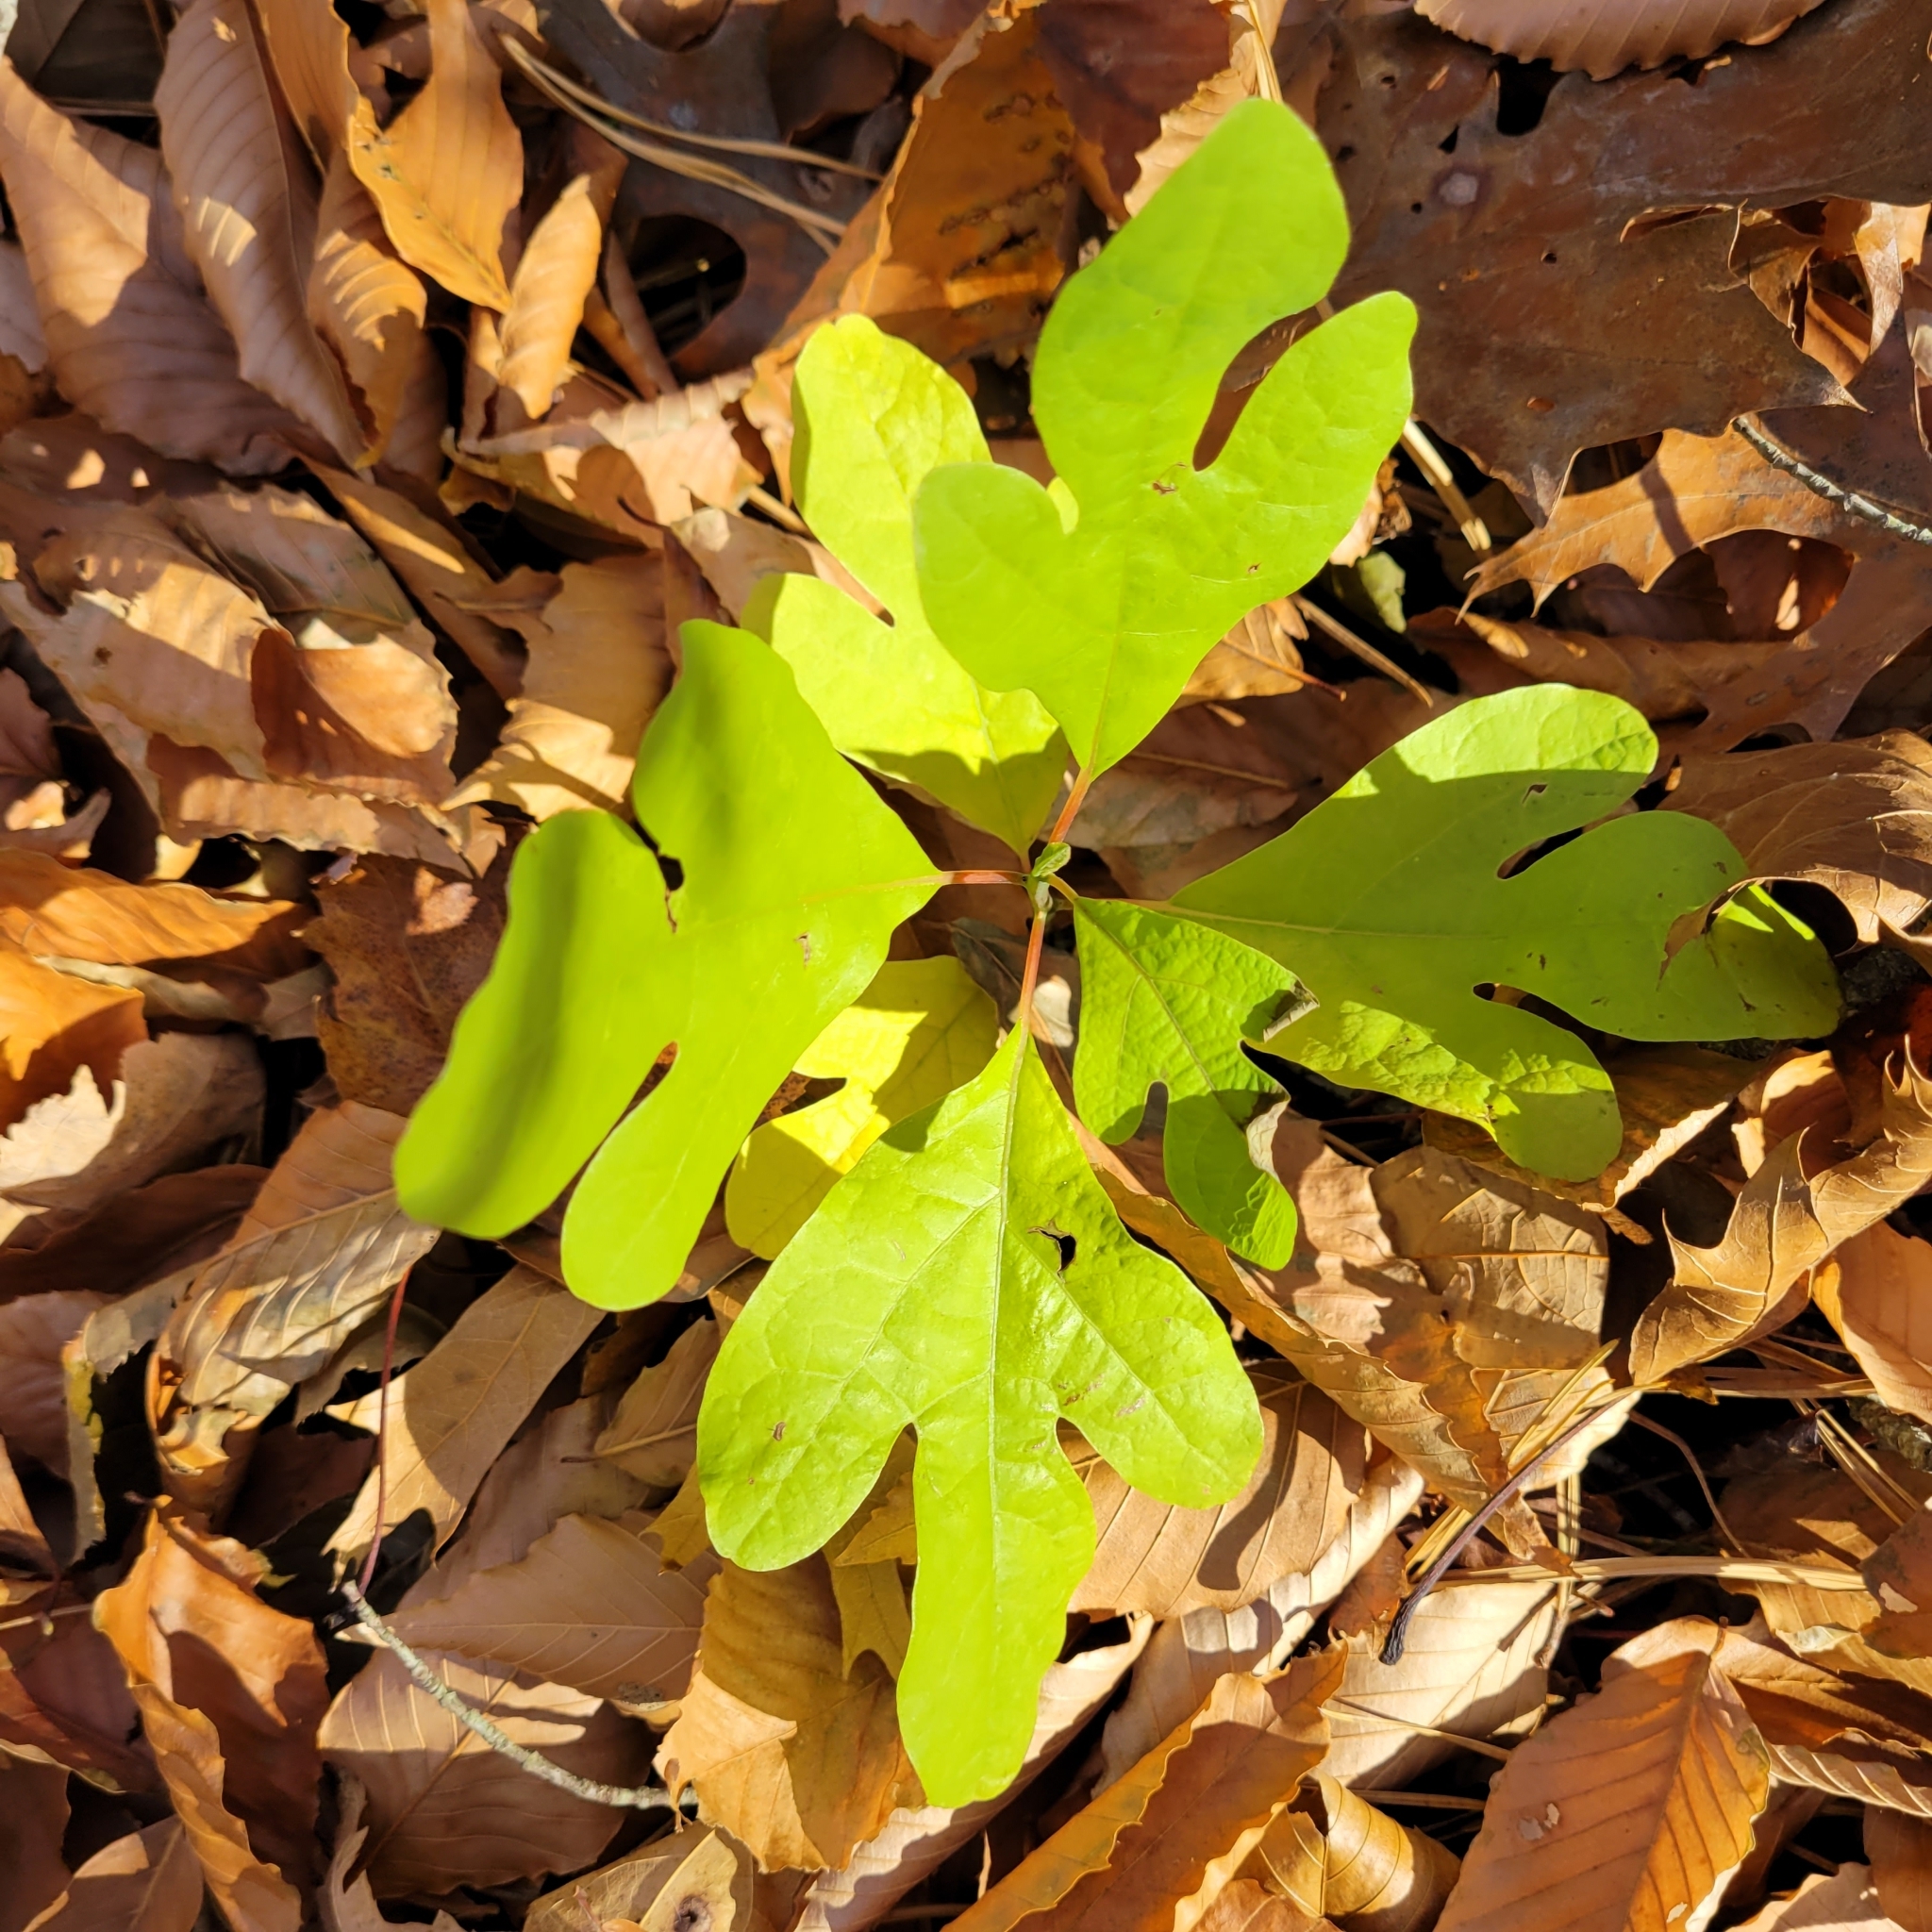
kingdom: Plantae
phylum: Tracheophyta
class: Magnoliopsida
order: Laurales
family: Lauraceae
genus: Sassafras
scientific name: Sassafras albidum
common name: Sassafras
